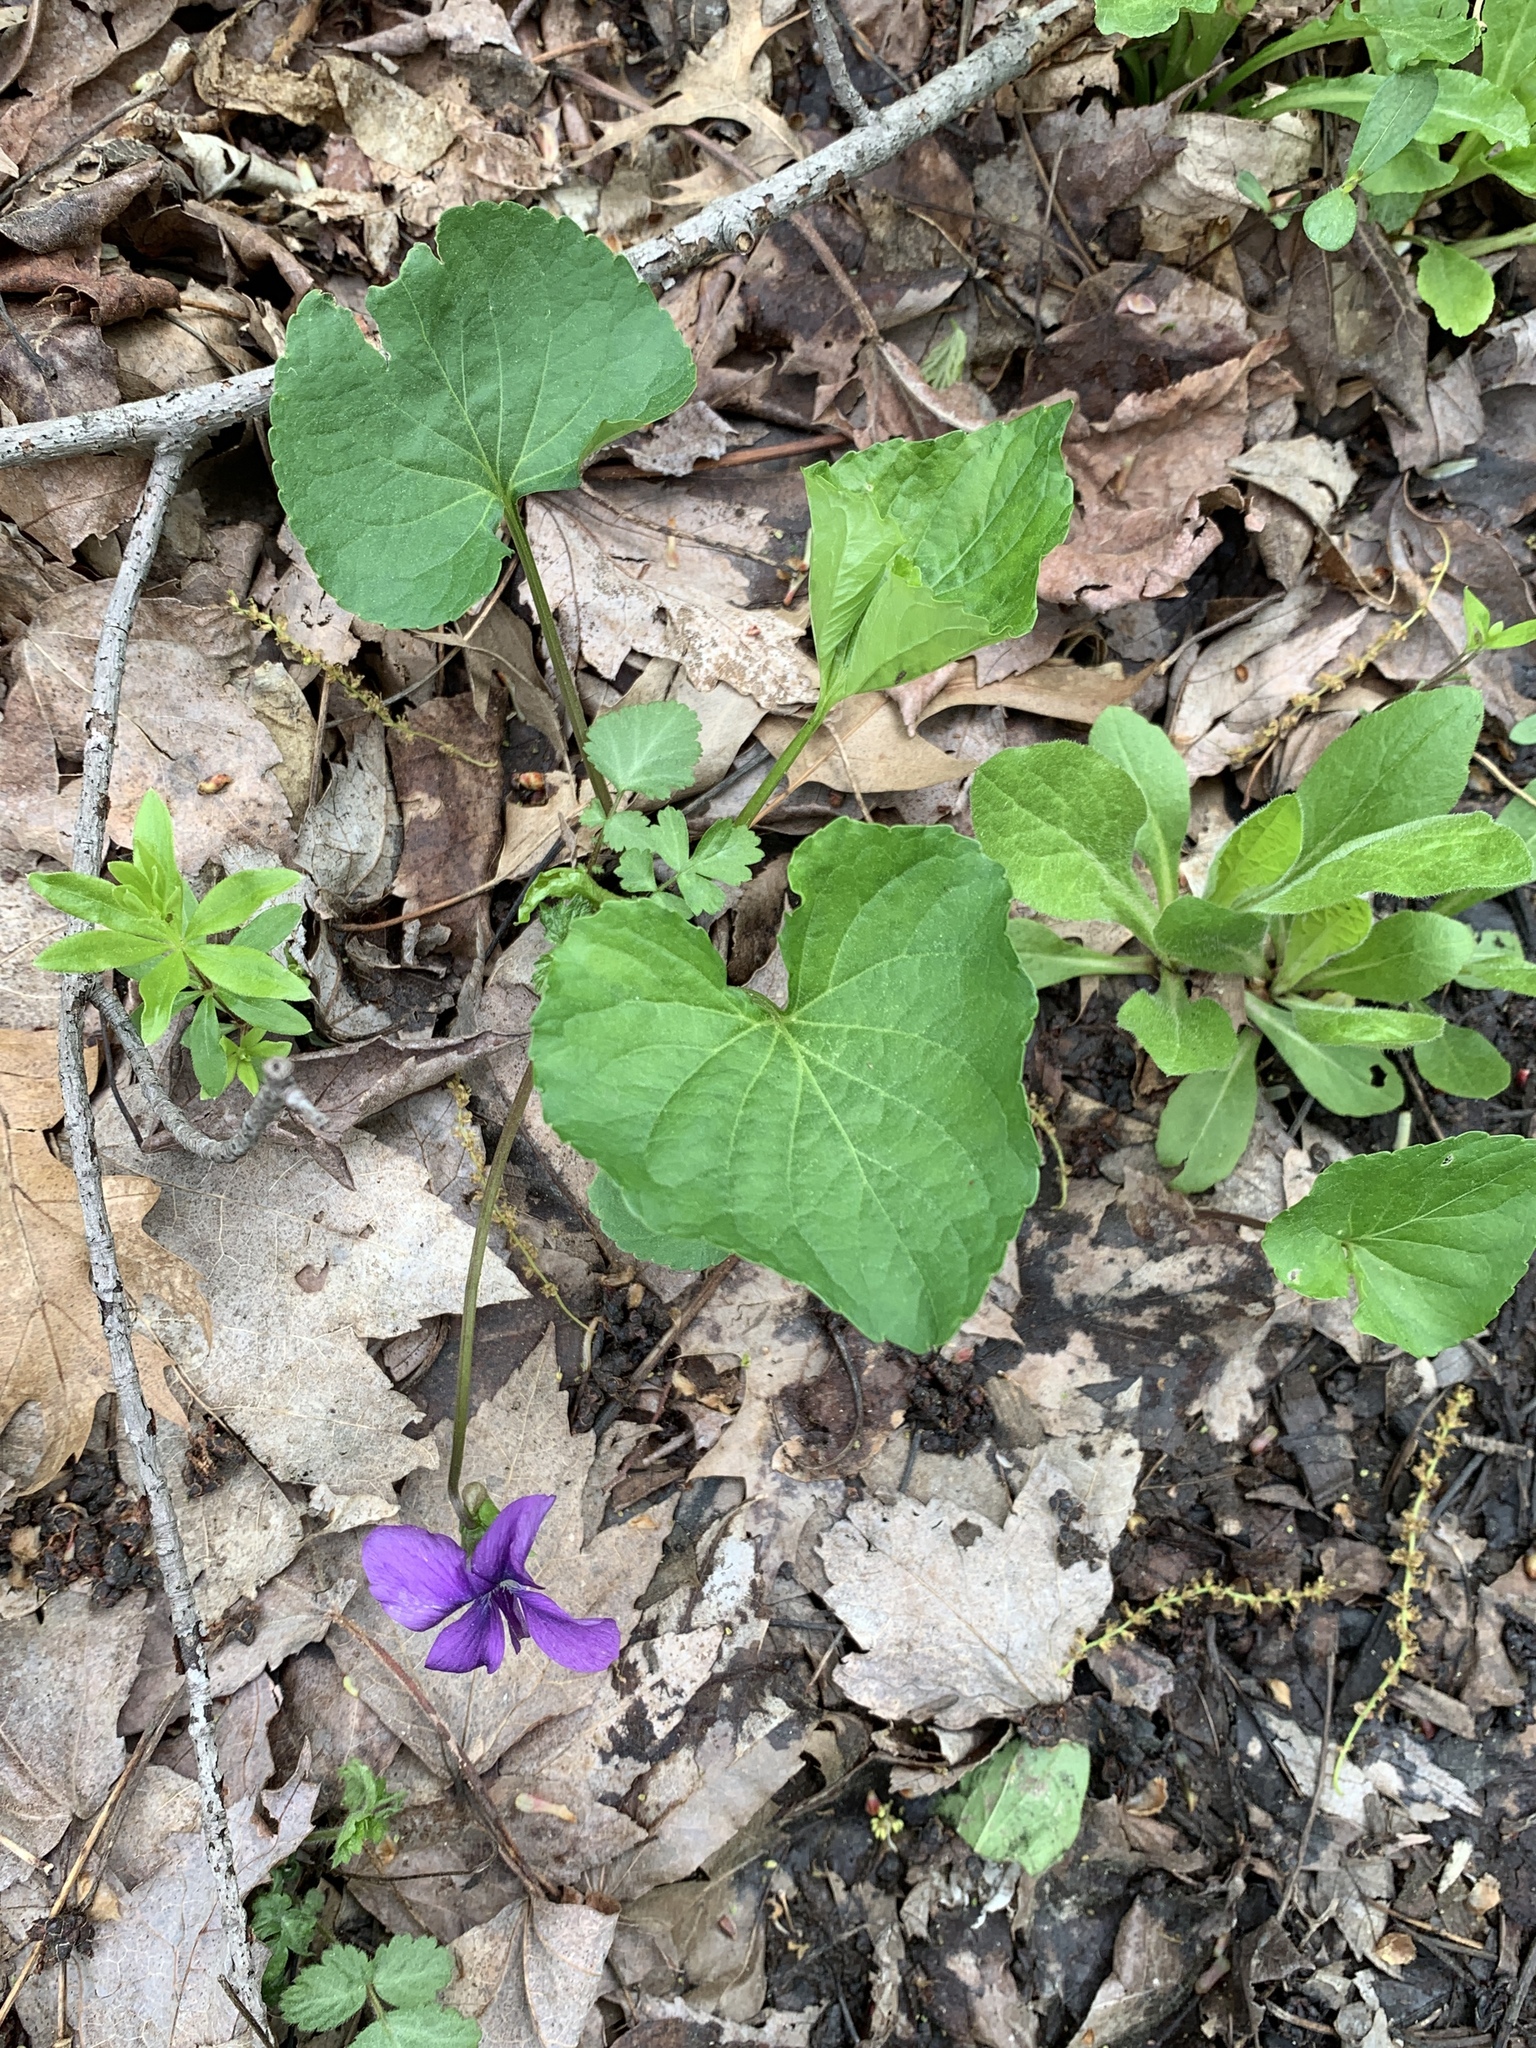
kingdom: Plantae
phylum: Tracheophyta
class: Magnoliopsida
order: Malpighiales
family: Violaceae
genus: Viola
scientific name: Viola sororia
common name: Dooryard violet
